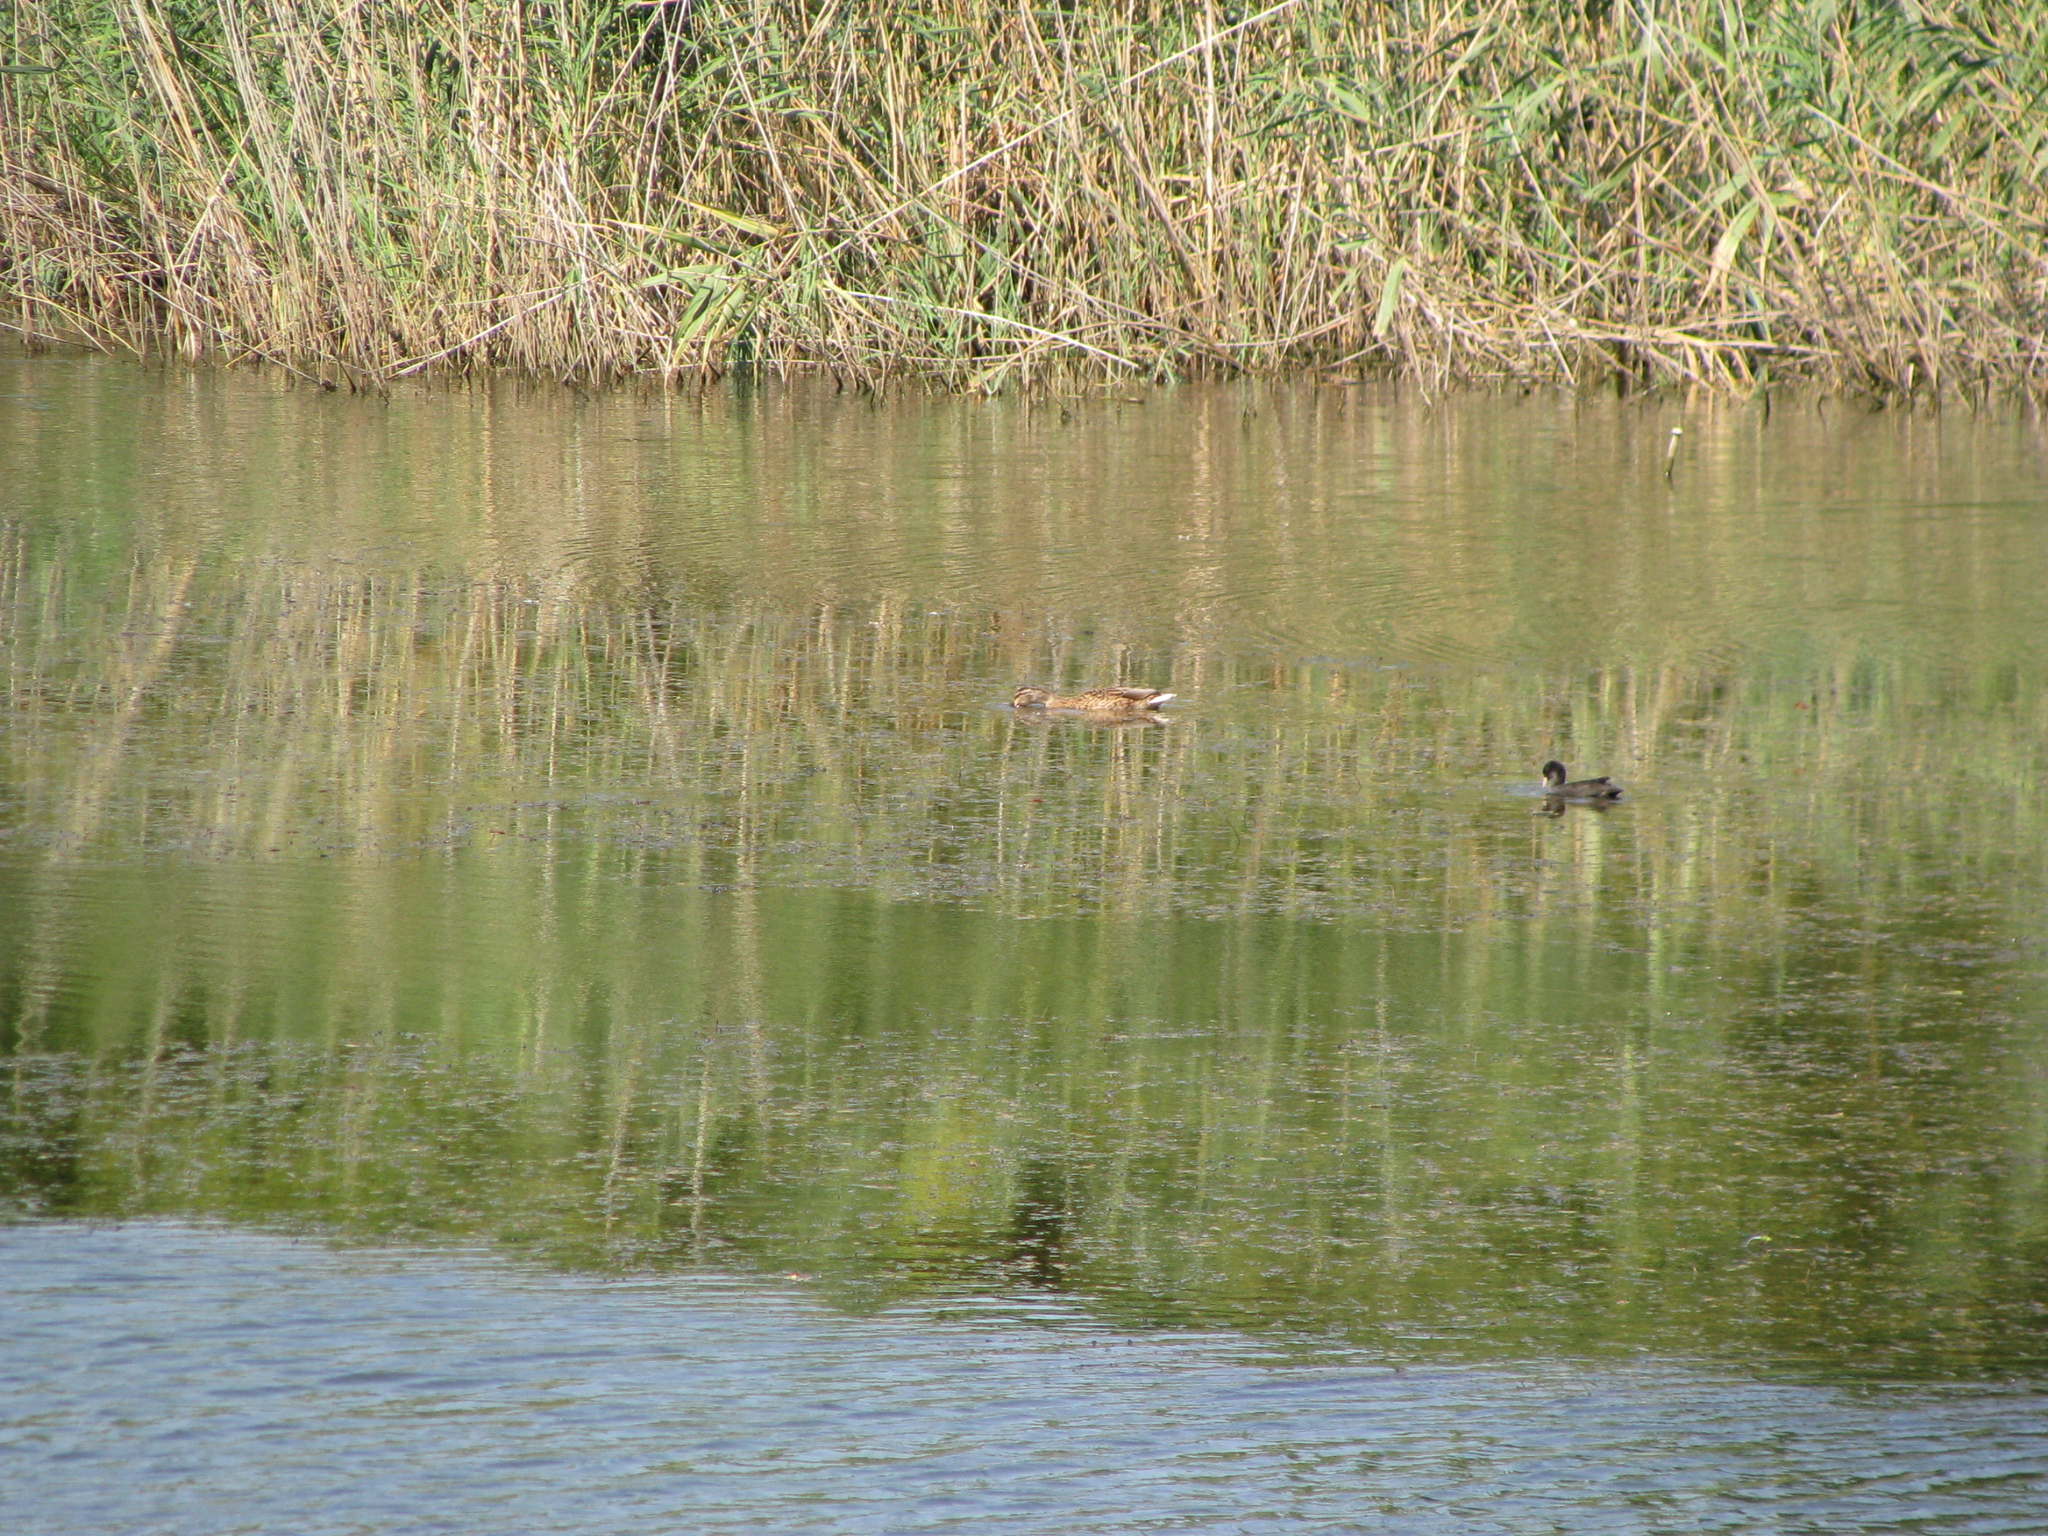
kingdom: Animalia
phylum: Chordata
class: Aves
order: Anseriformes
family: Anatidae
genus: Anas
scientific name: Anas platyrhynchos
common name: Mallard
